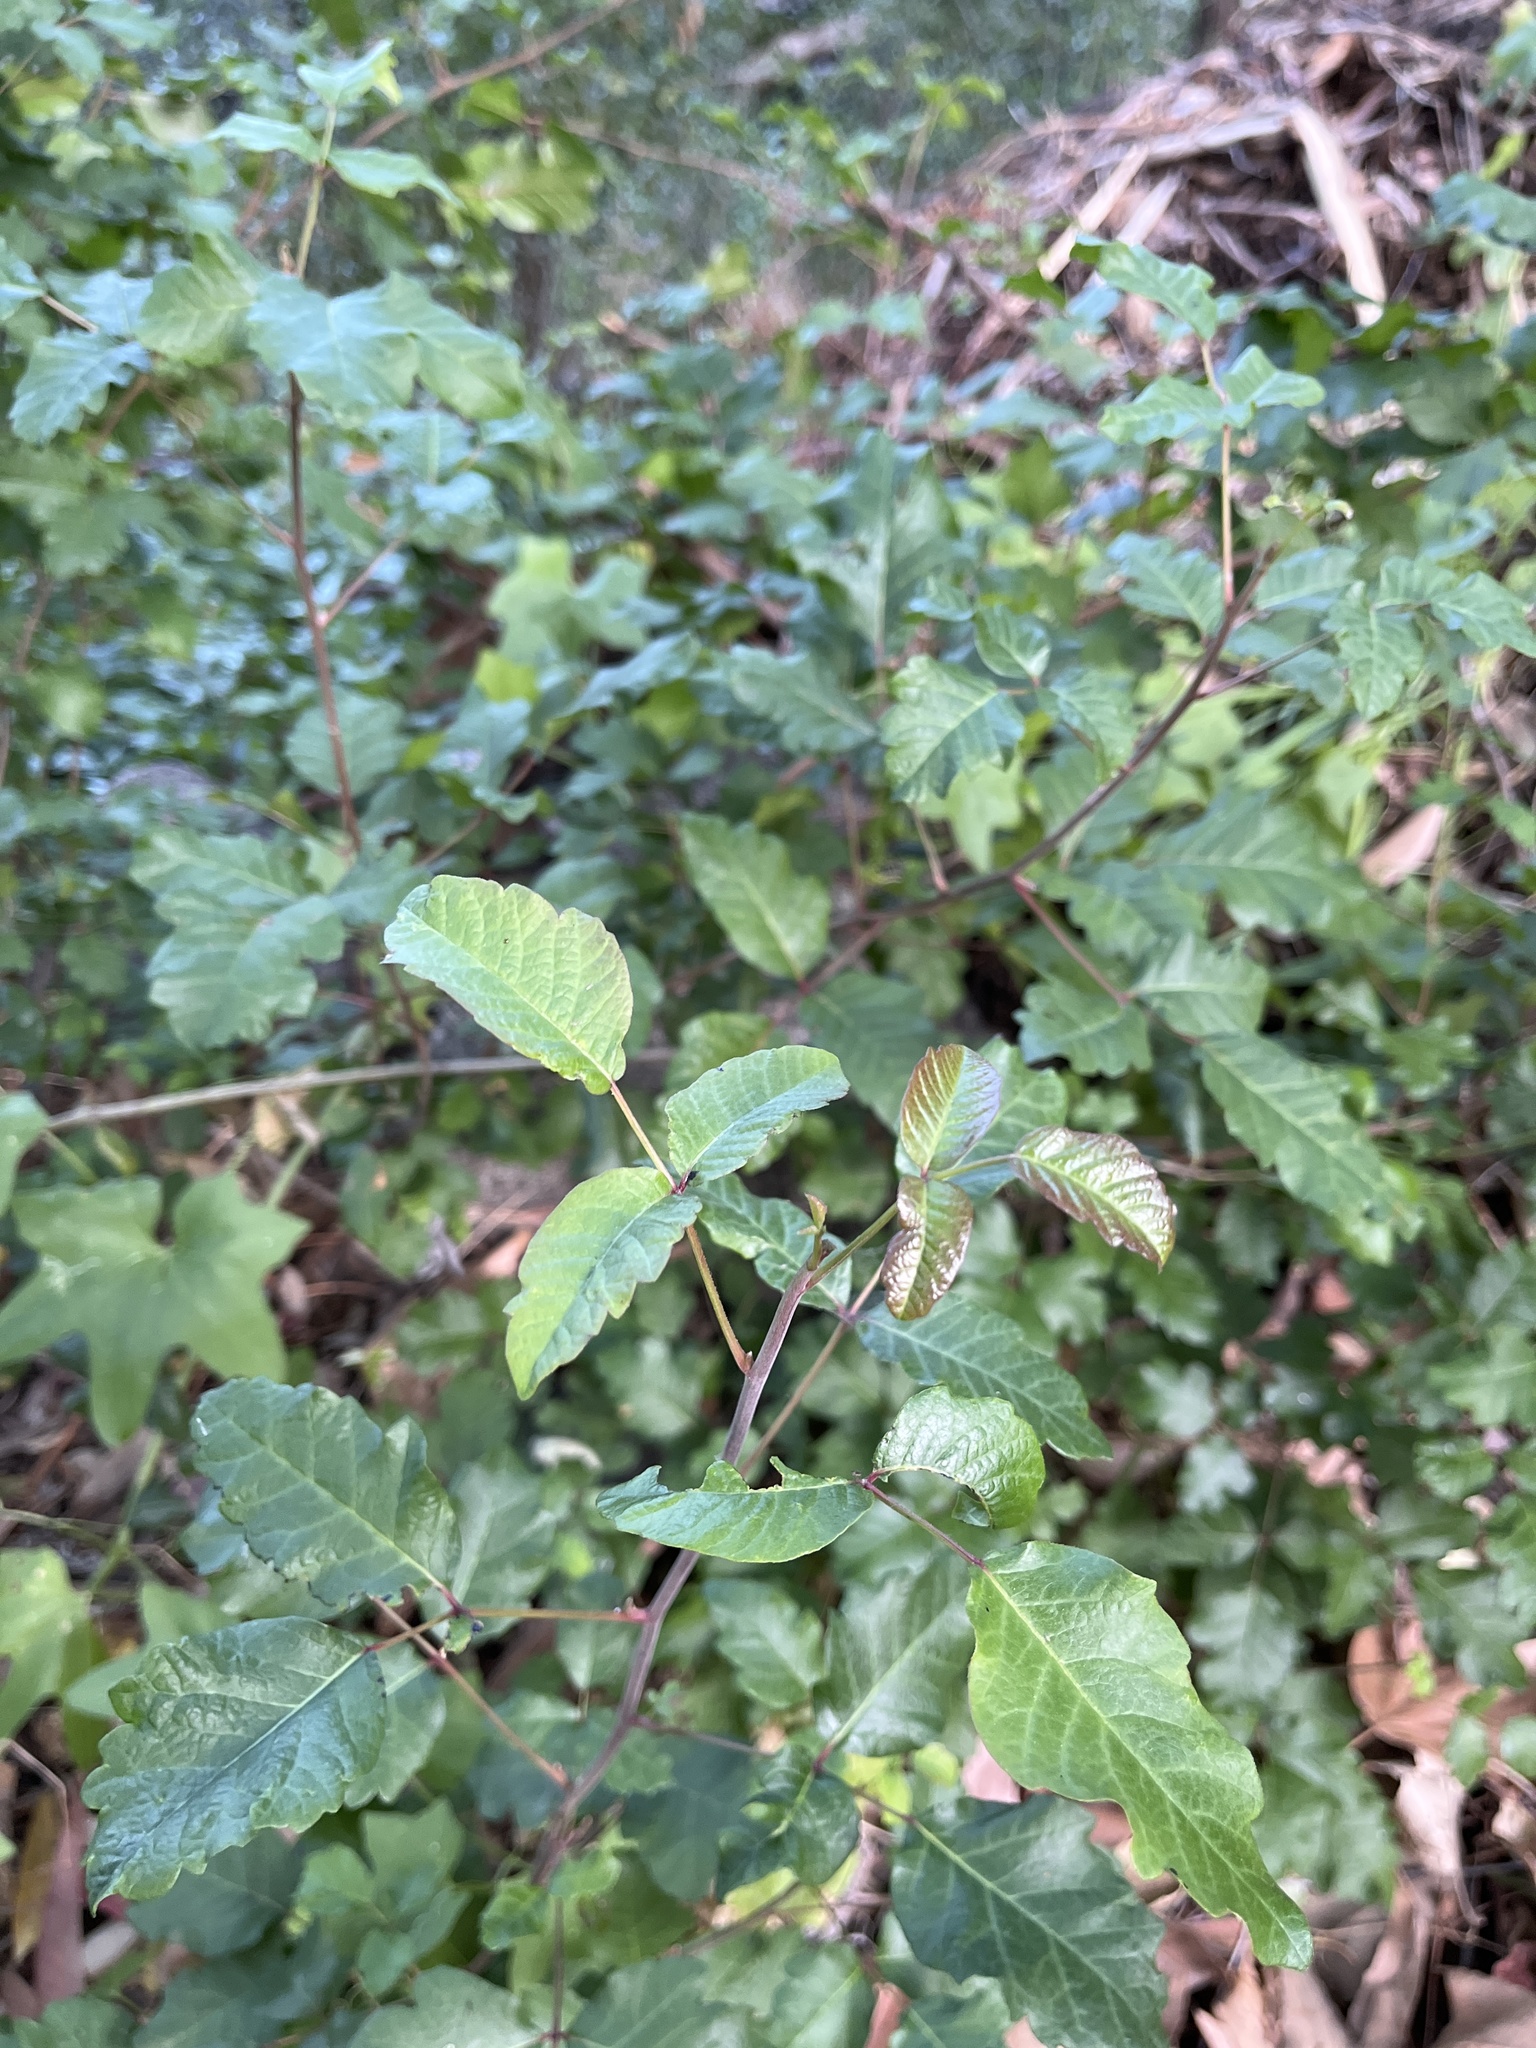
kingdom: Plantae
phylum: Tracheophyta
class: Magnoliopsida
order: Sapindales
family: Anacardiaceae
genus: Toxicodendron
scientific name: Toxicodendron diversilobum
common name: Pacific poison-oak
